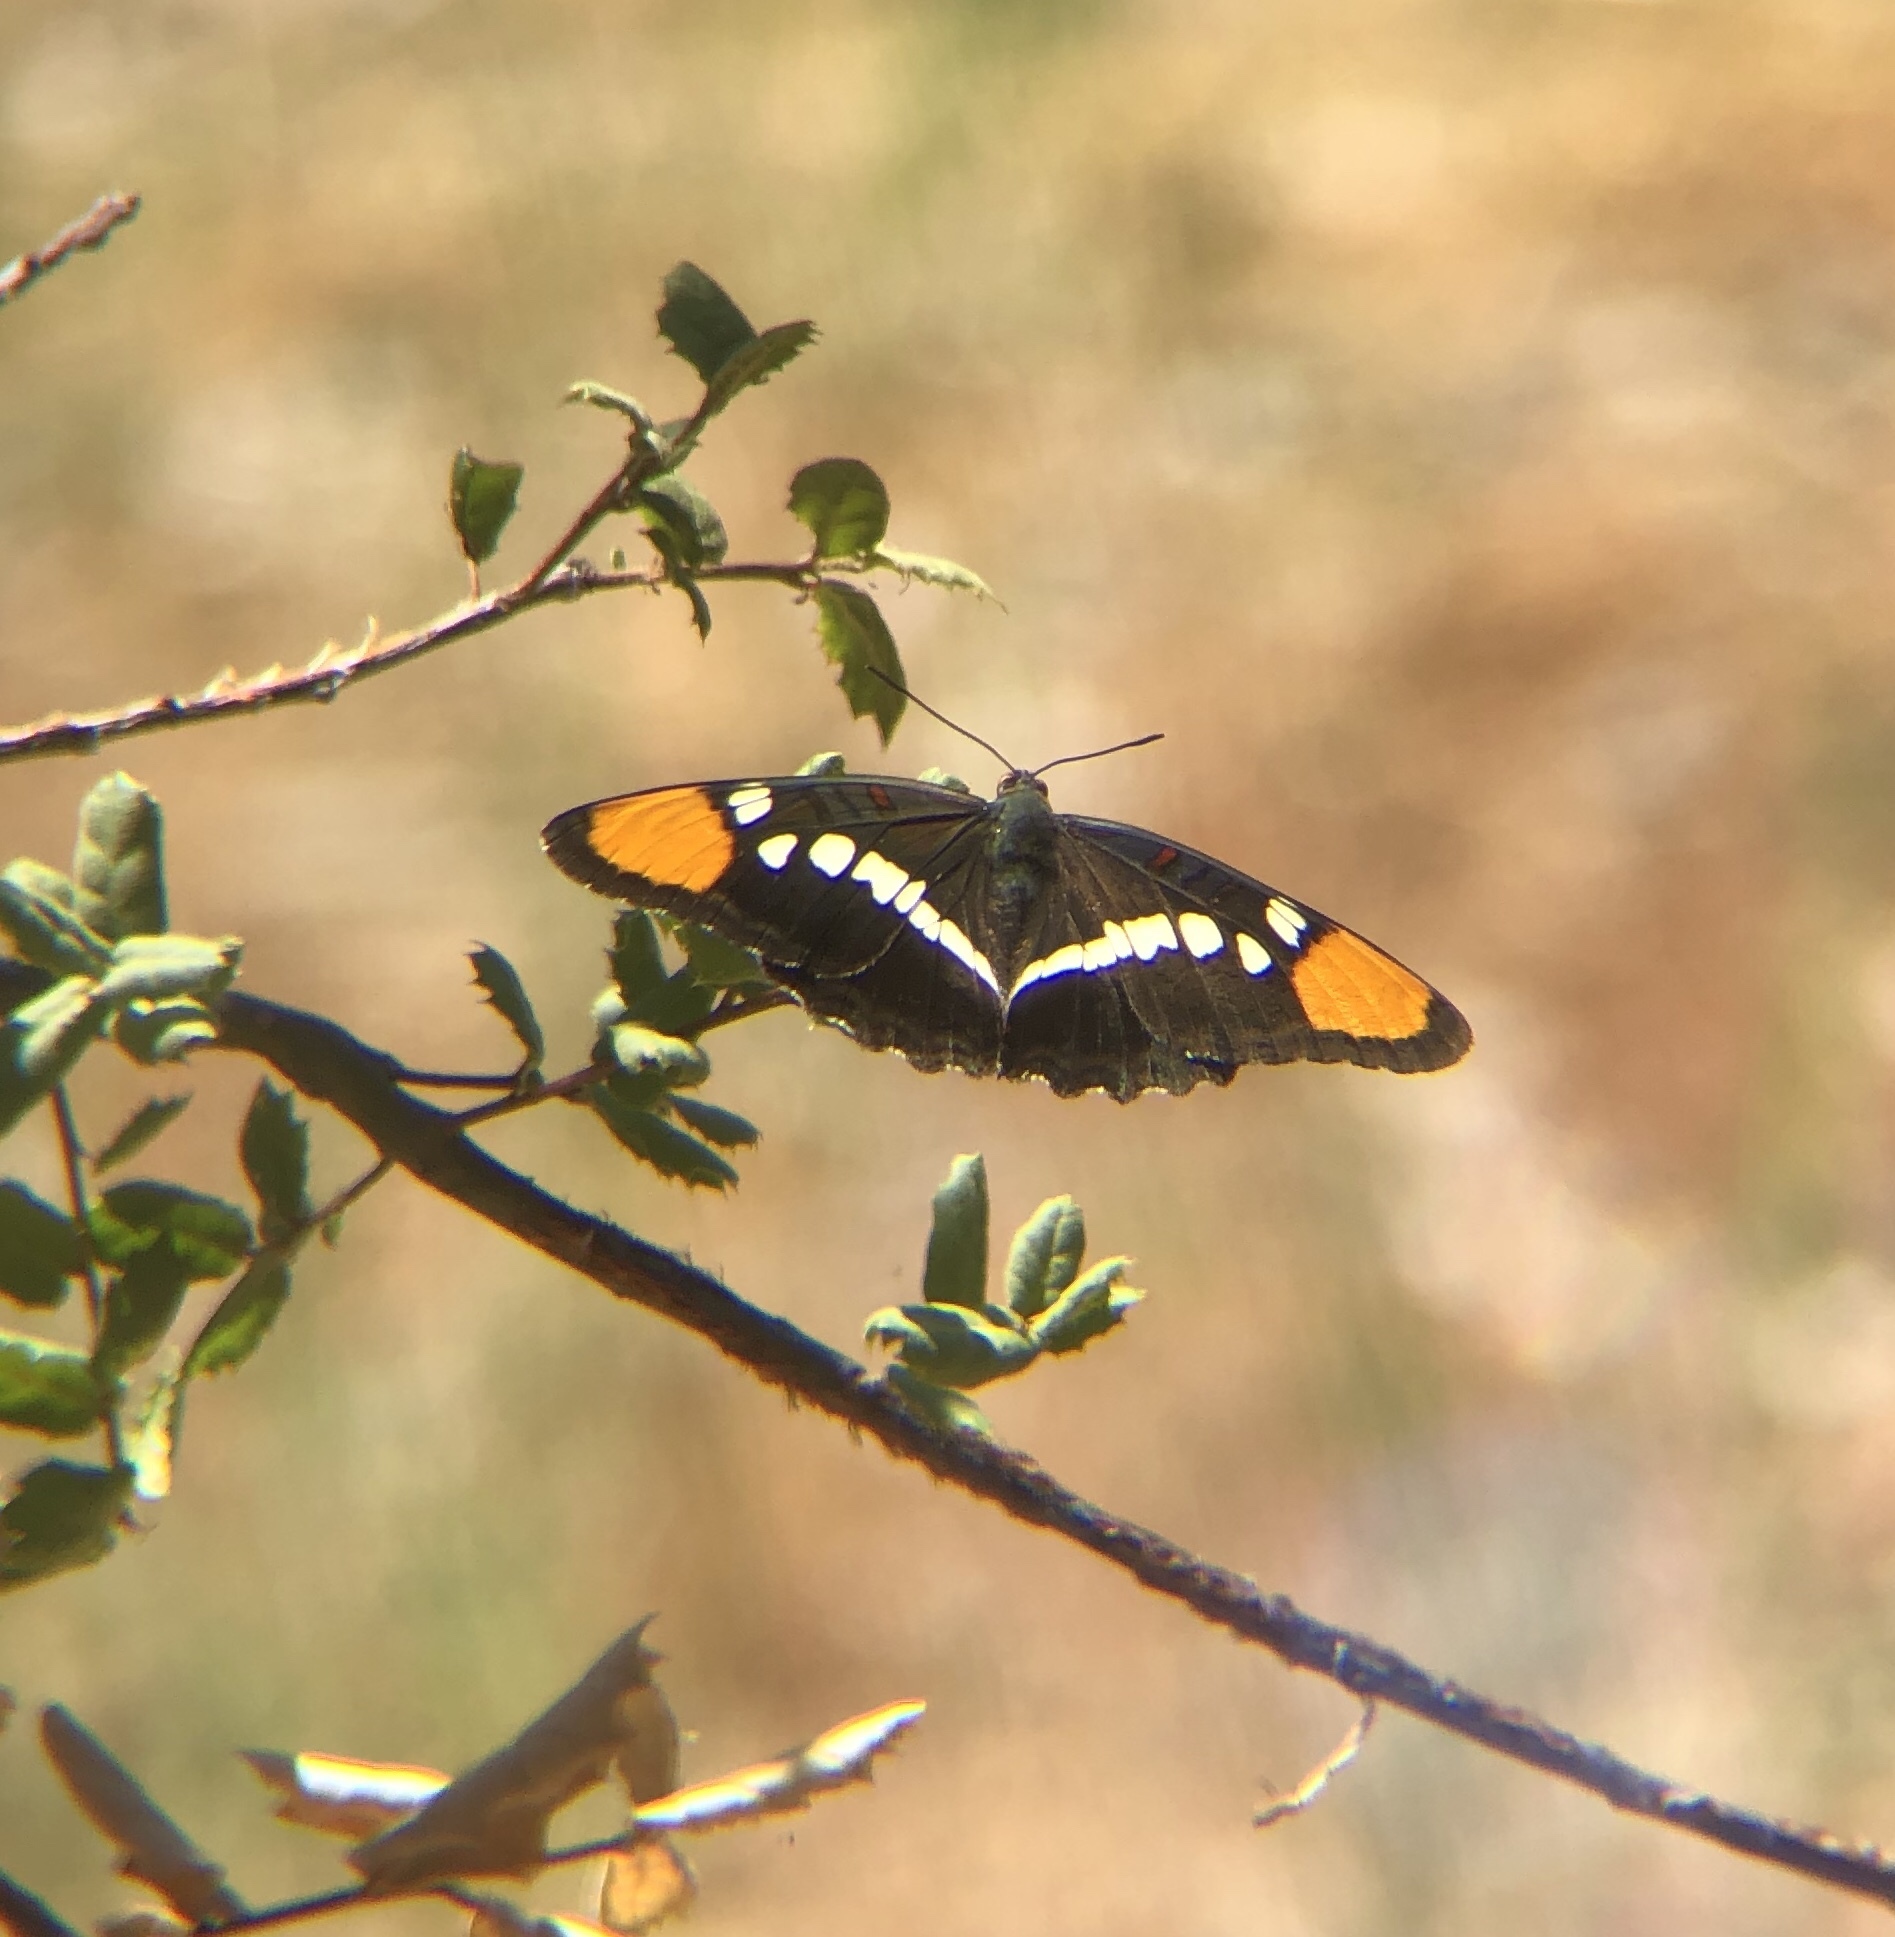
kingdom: Animalia
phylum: Arthropoda
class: Insecta
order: Lepidoptera
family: Nymphalidae
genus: Limenitis
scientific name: Limenitis bredowii
